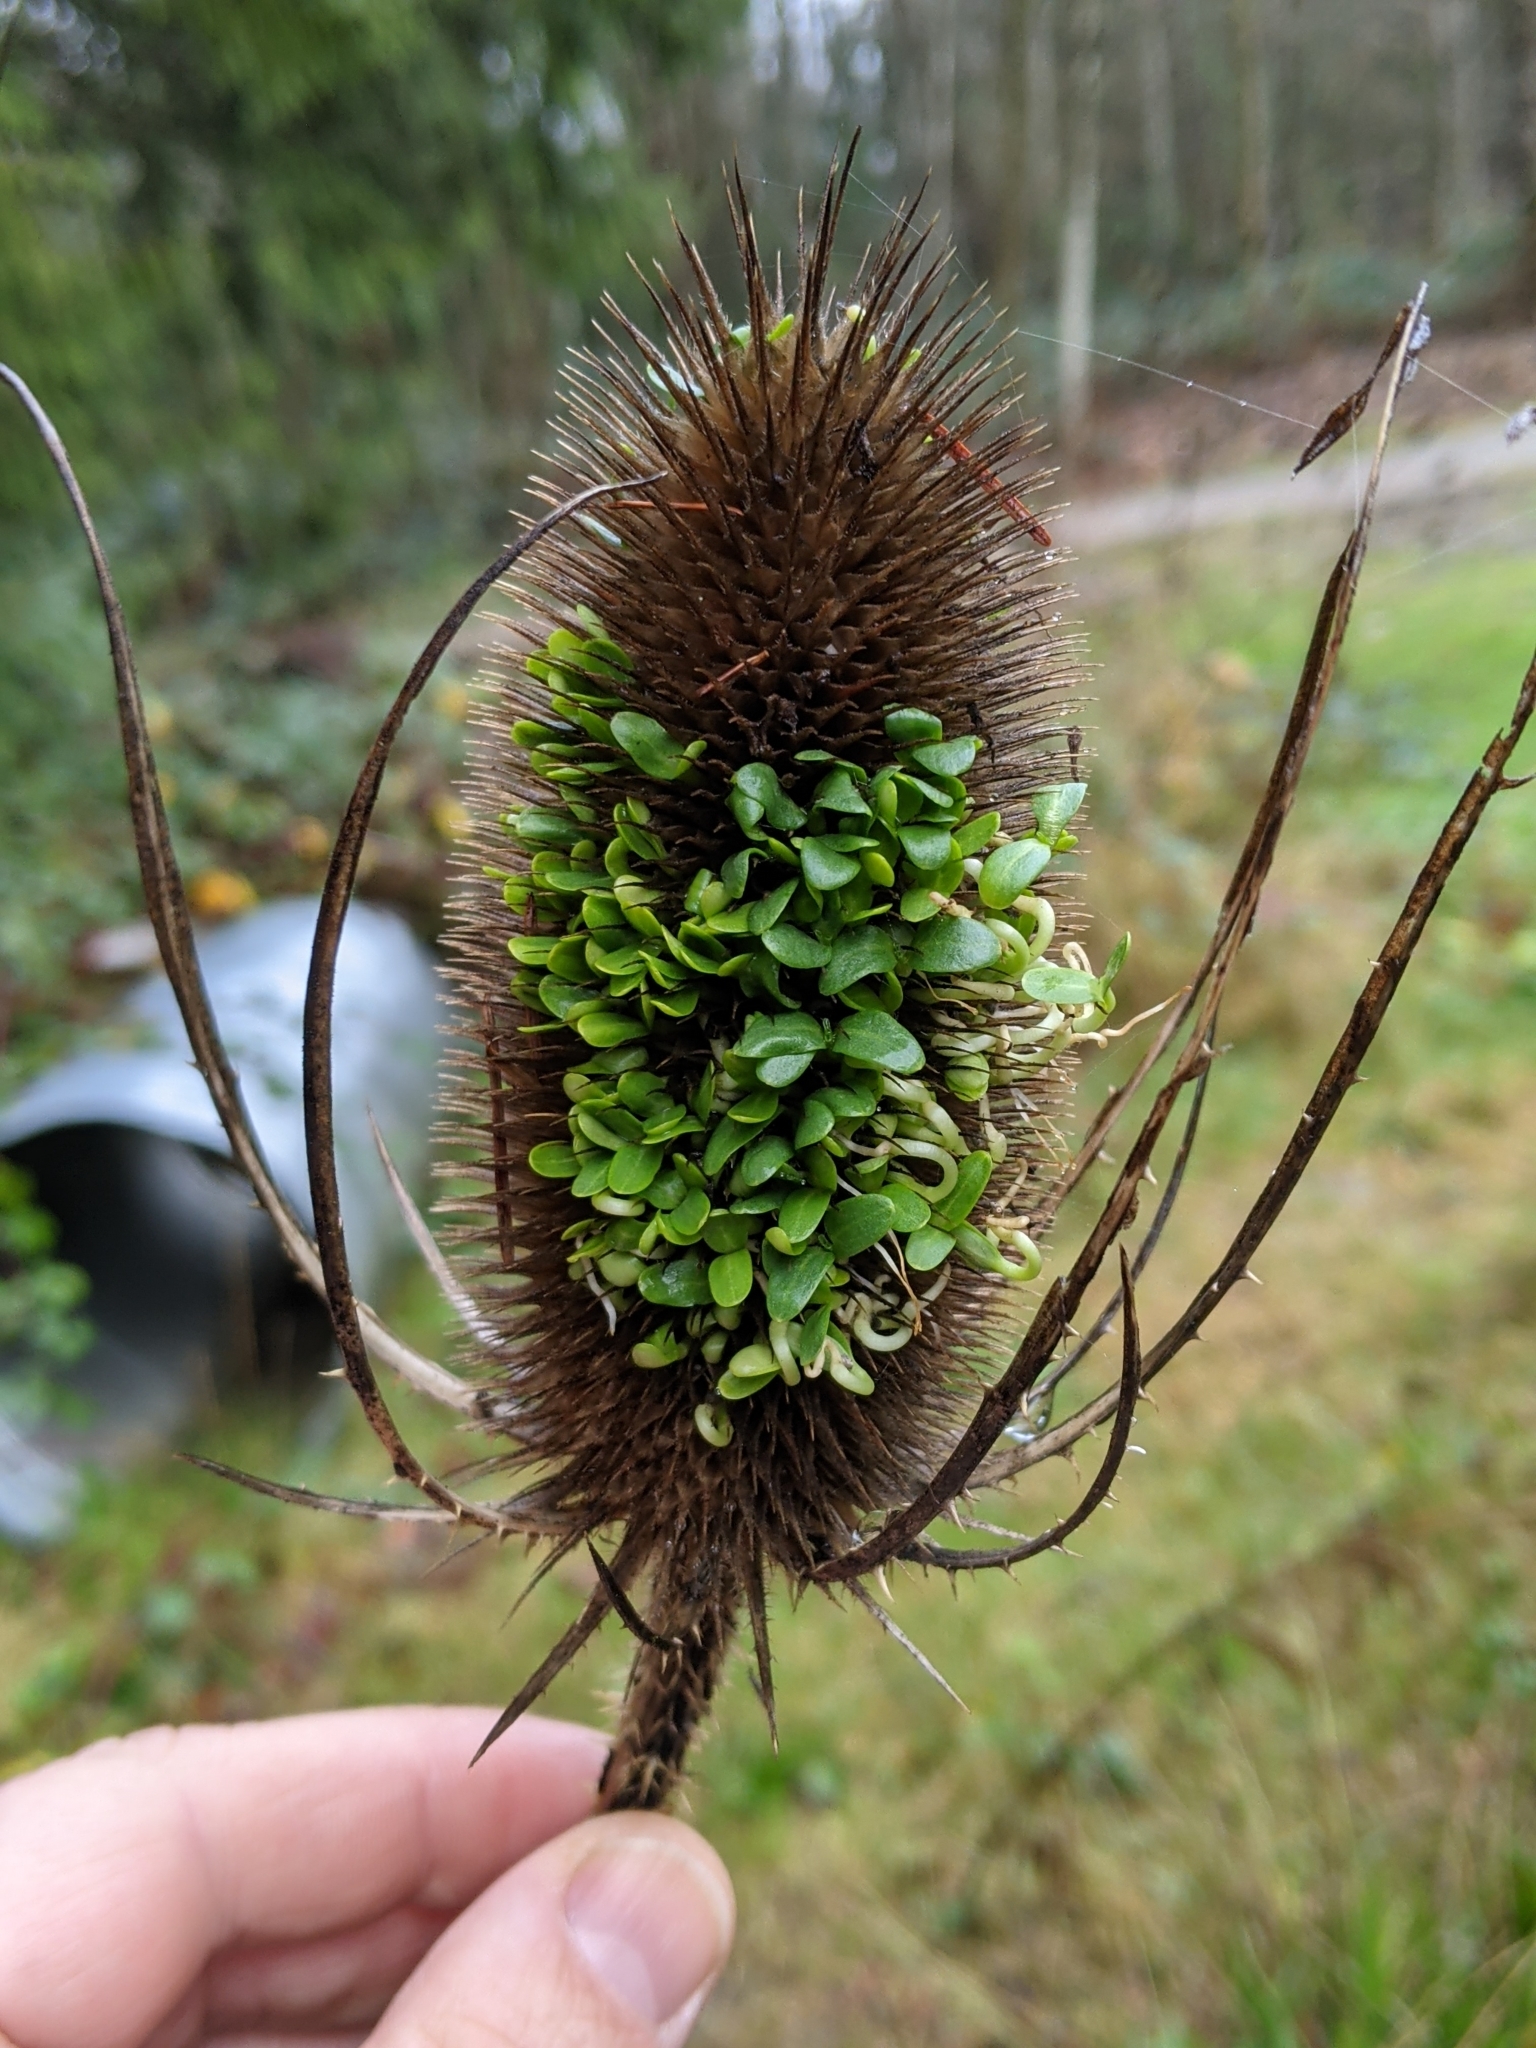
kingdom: Plantae
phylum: Tracheophyta
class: Magnoliopsida
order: Dipsacales
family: Caprifoliaceae
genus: Dipsacus
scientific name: Dipsacus fullonum
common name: Teasel
